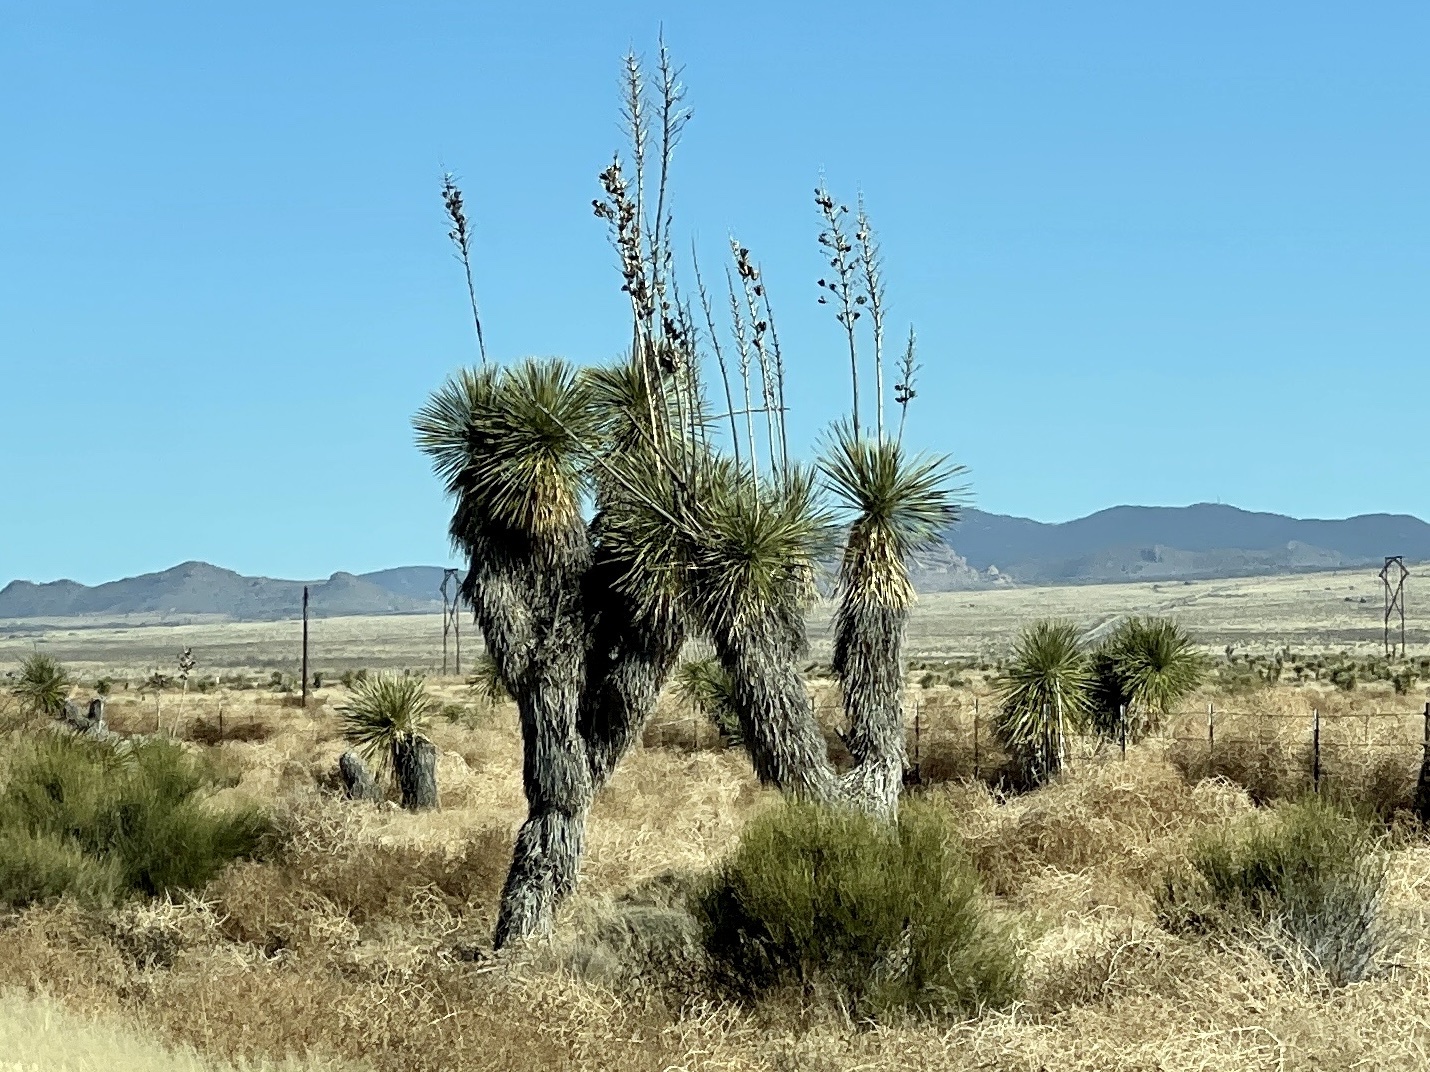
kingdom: Plantae
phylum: Tracheophyta
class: Liliopsida
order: Asparagales
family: Asparagaceae
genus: Yucca
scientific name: Yucca elata
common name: Palmella
